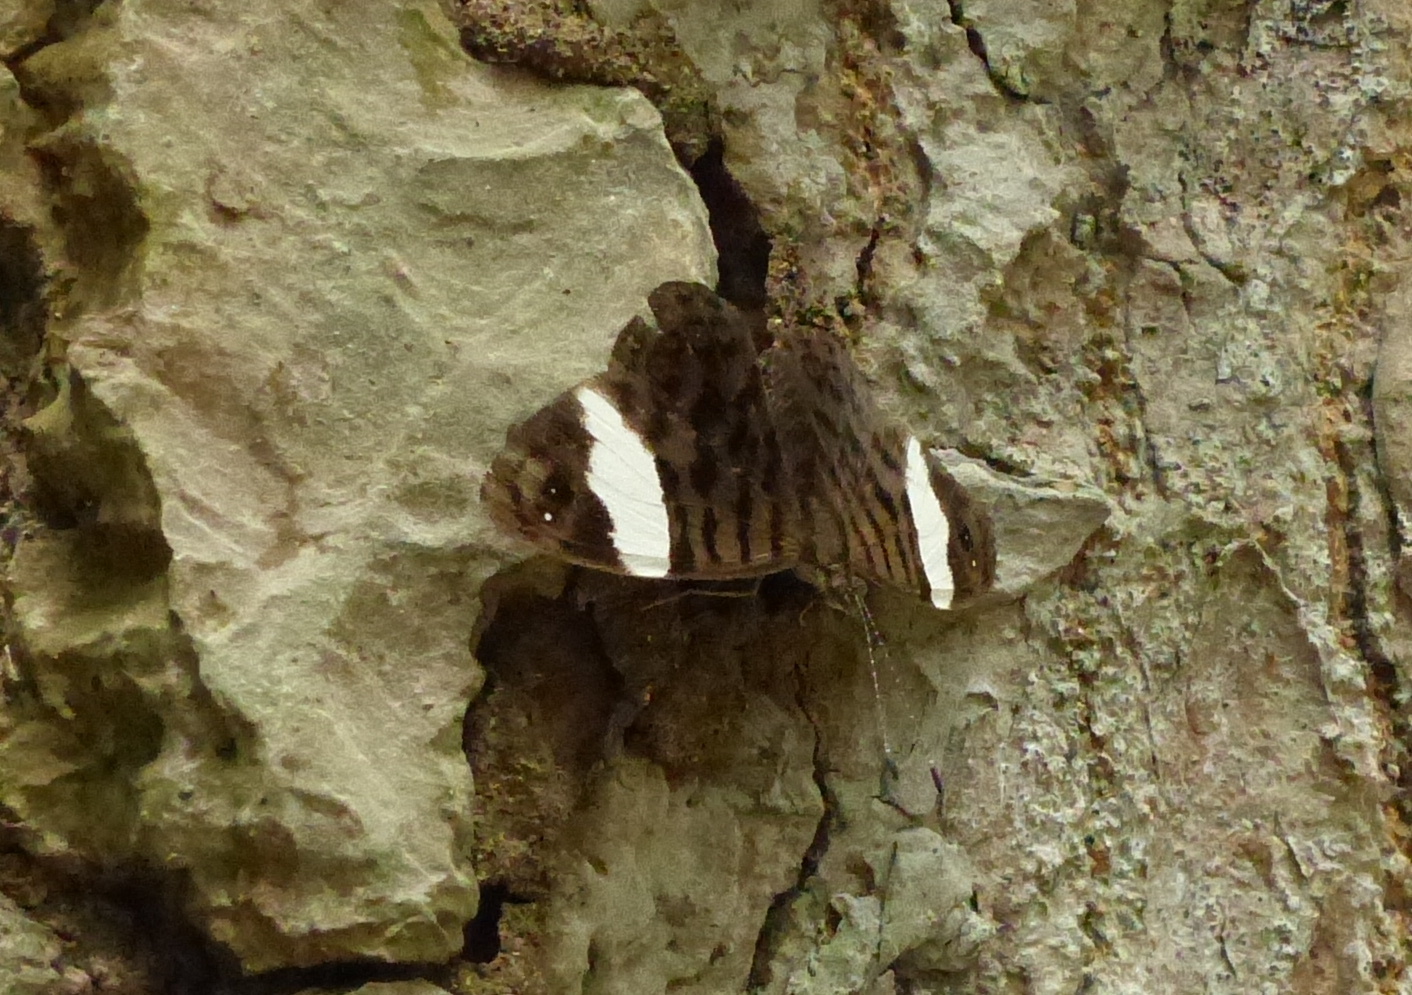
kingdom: Animalia
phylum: Arthropoda
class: Insecta
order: Lepidoptera
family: Nymphalidae
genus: Ectima
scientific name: Ectima thecla
